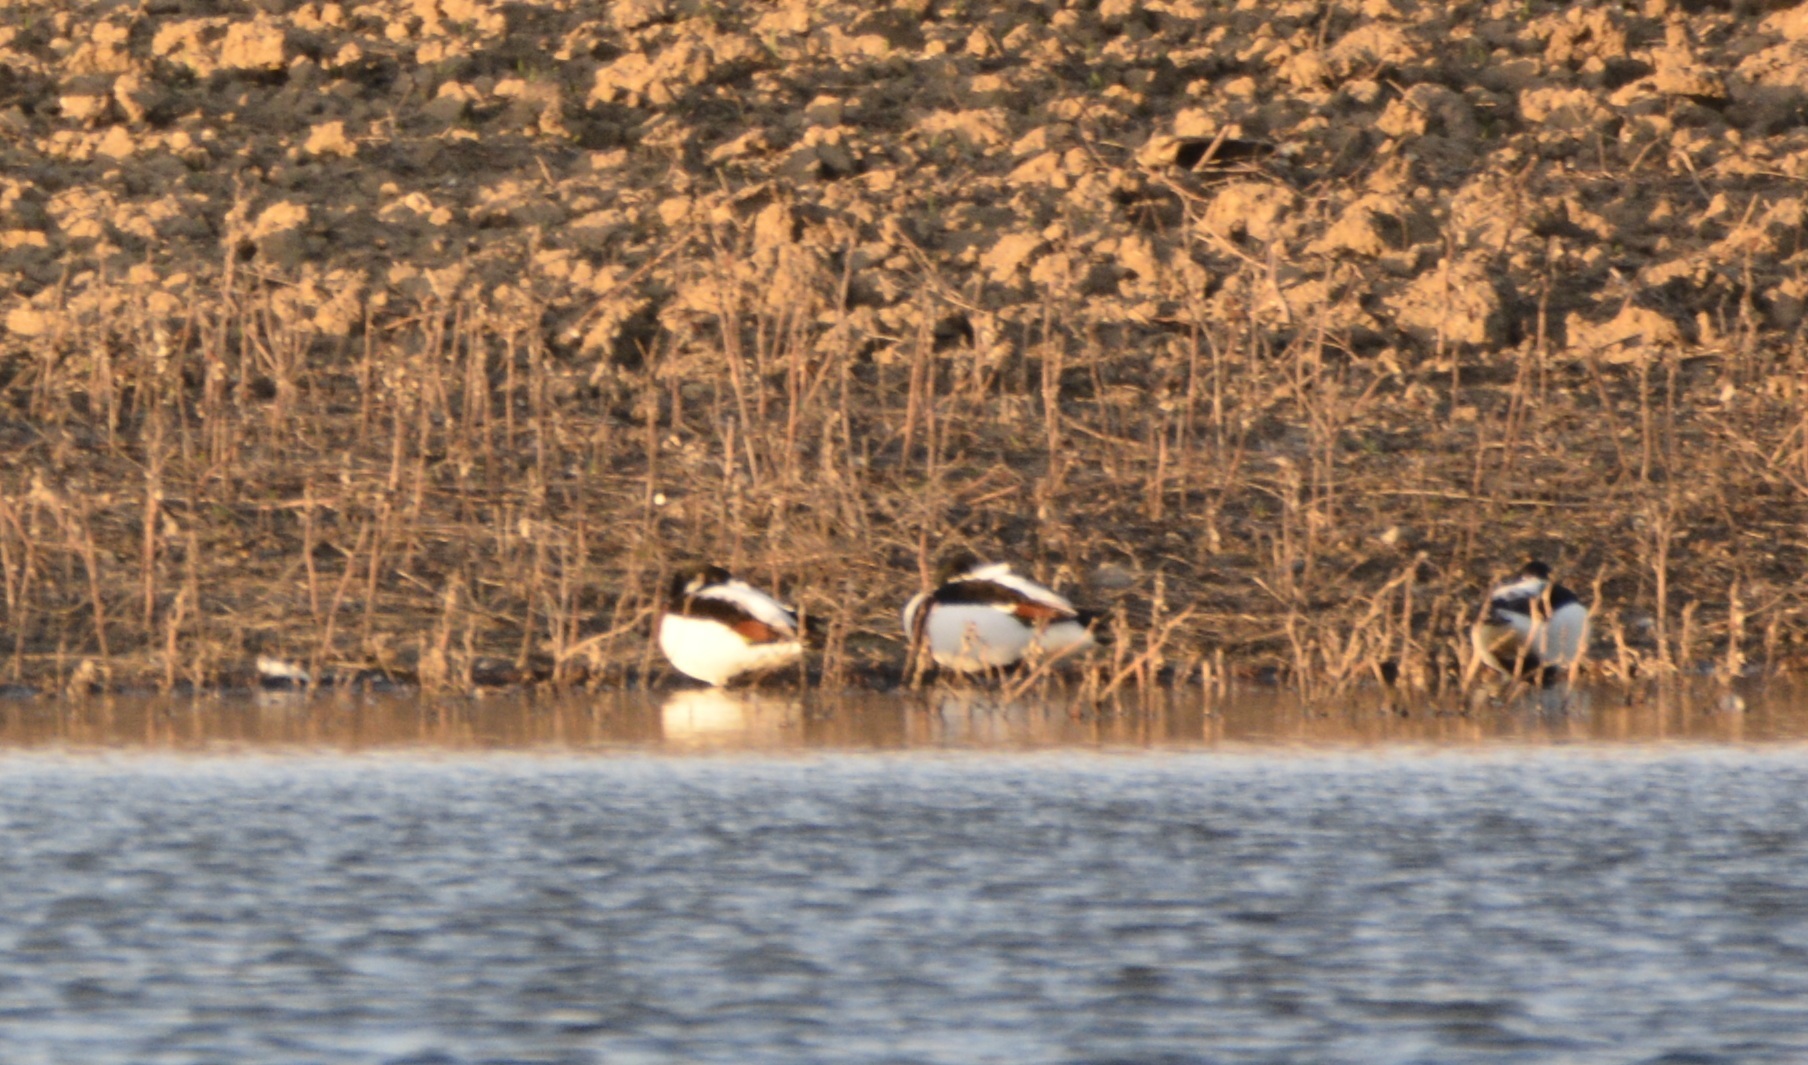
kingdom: Animalia
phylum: Chordata
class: Aves
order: Anseriformes
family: Anatidae
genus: Tadorna
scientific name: Tadorna tadorna
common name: Common shelduck
